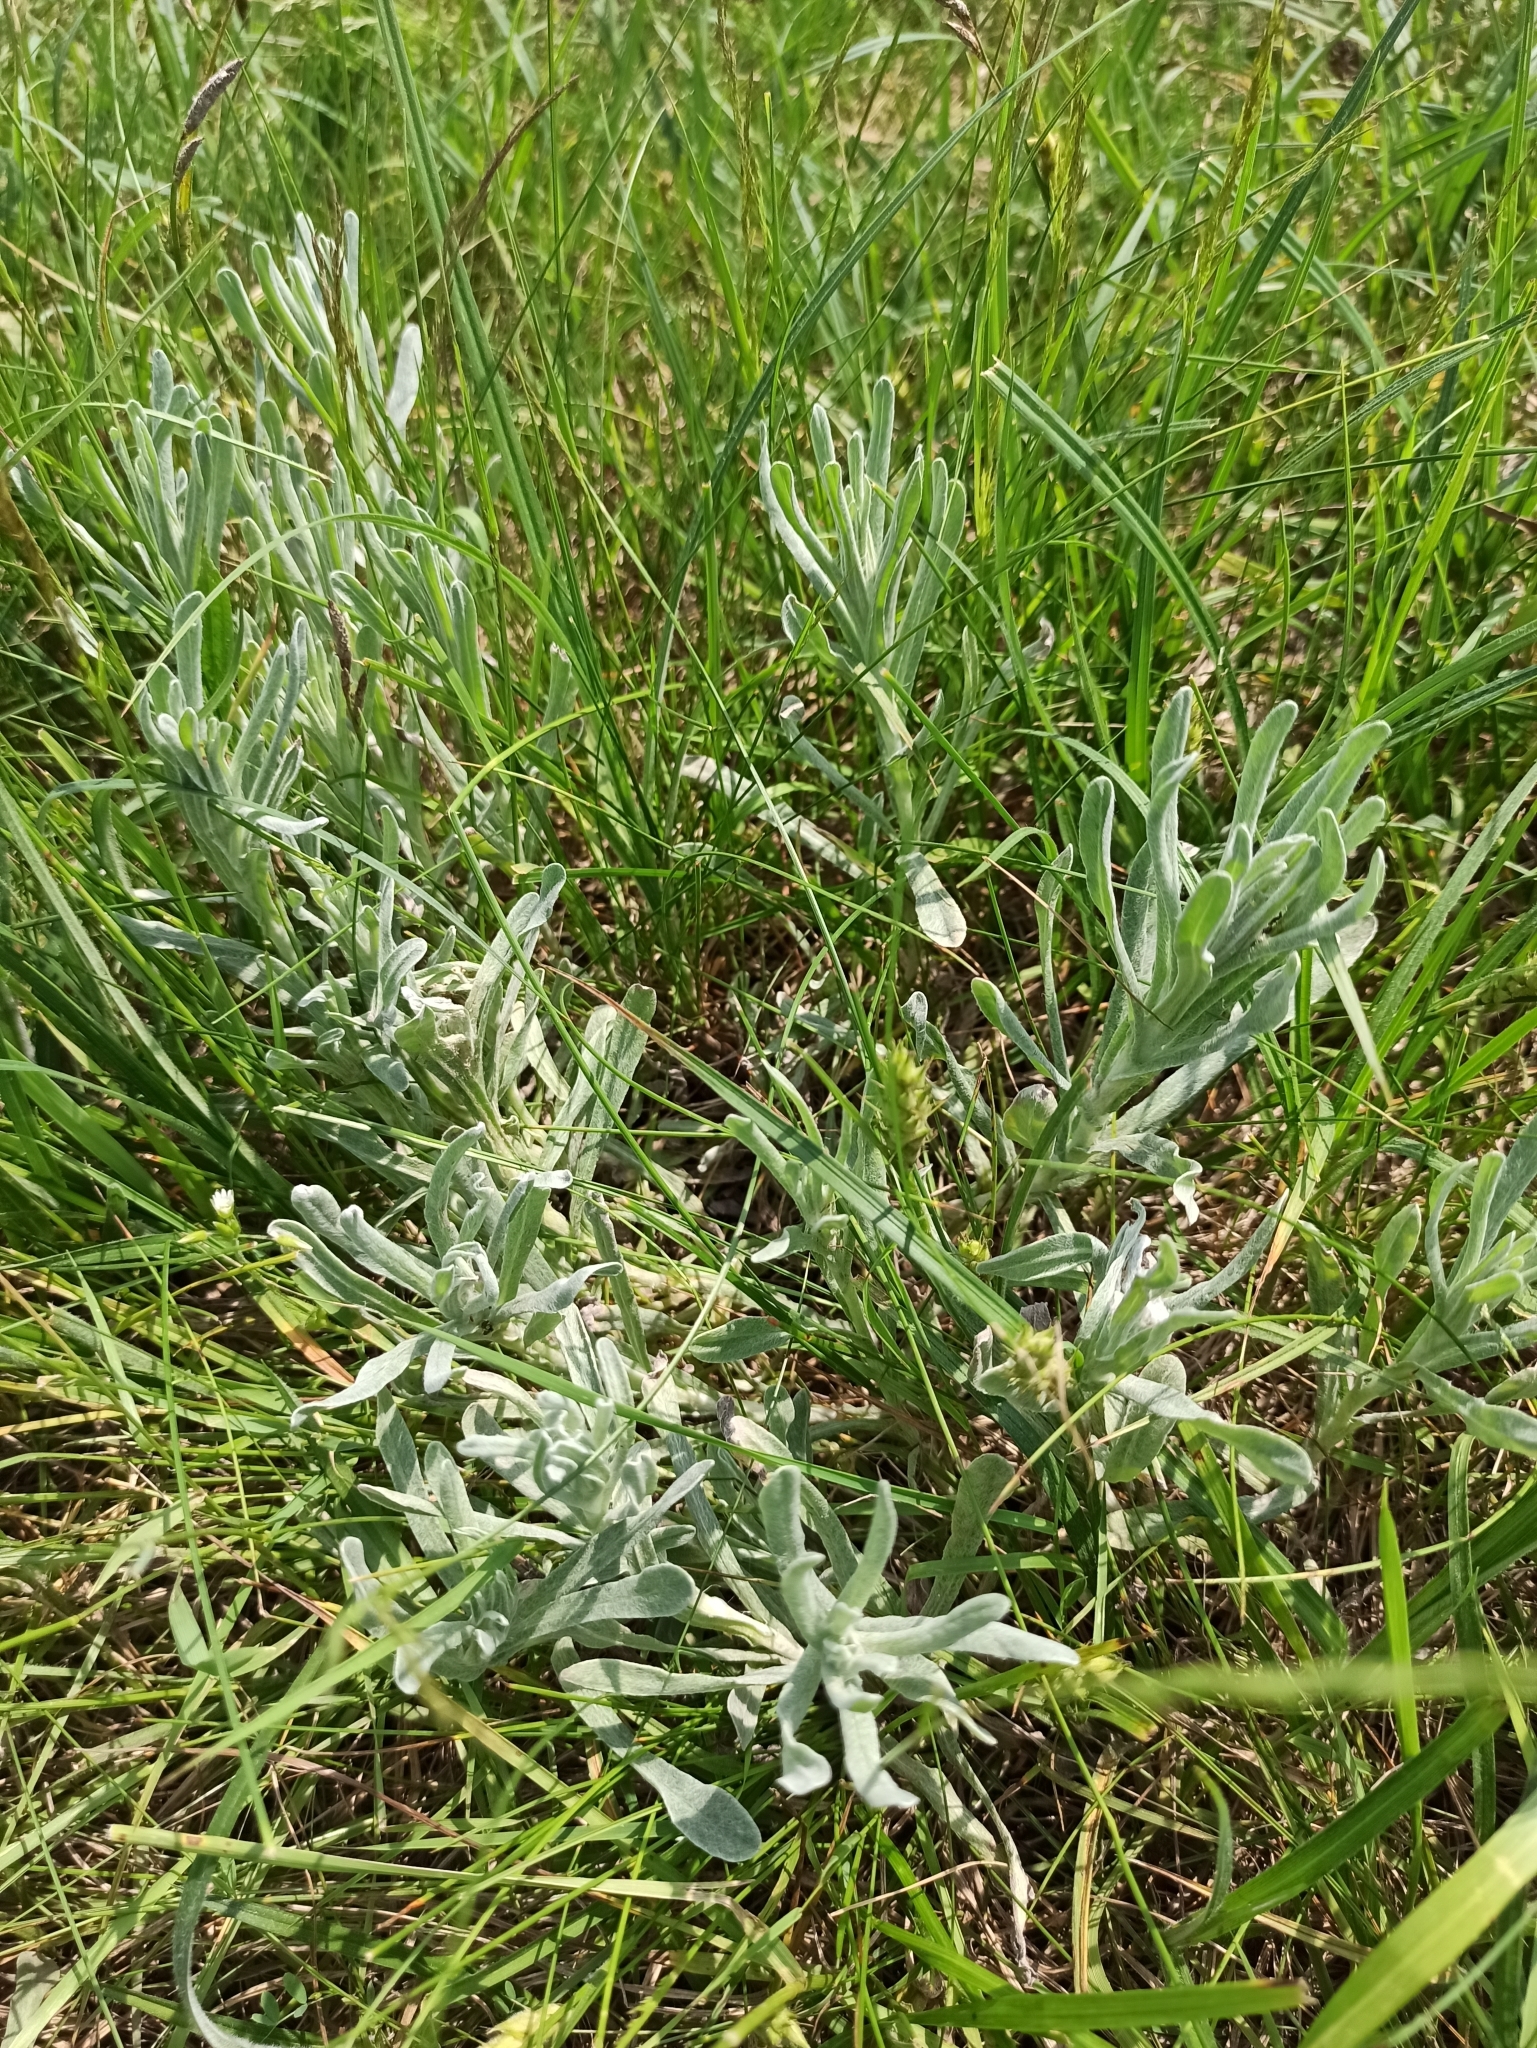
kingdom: Plantae
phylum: Tracheophyta
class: Magnoliopsida
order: Asterales
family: Asteraceae
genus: Helichrysum
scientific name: Helichrysum arenarium
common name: Strawflower
